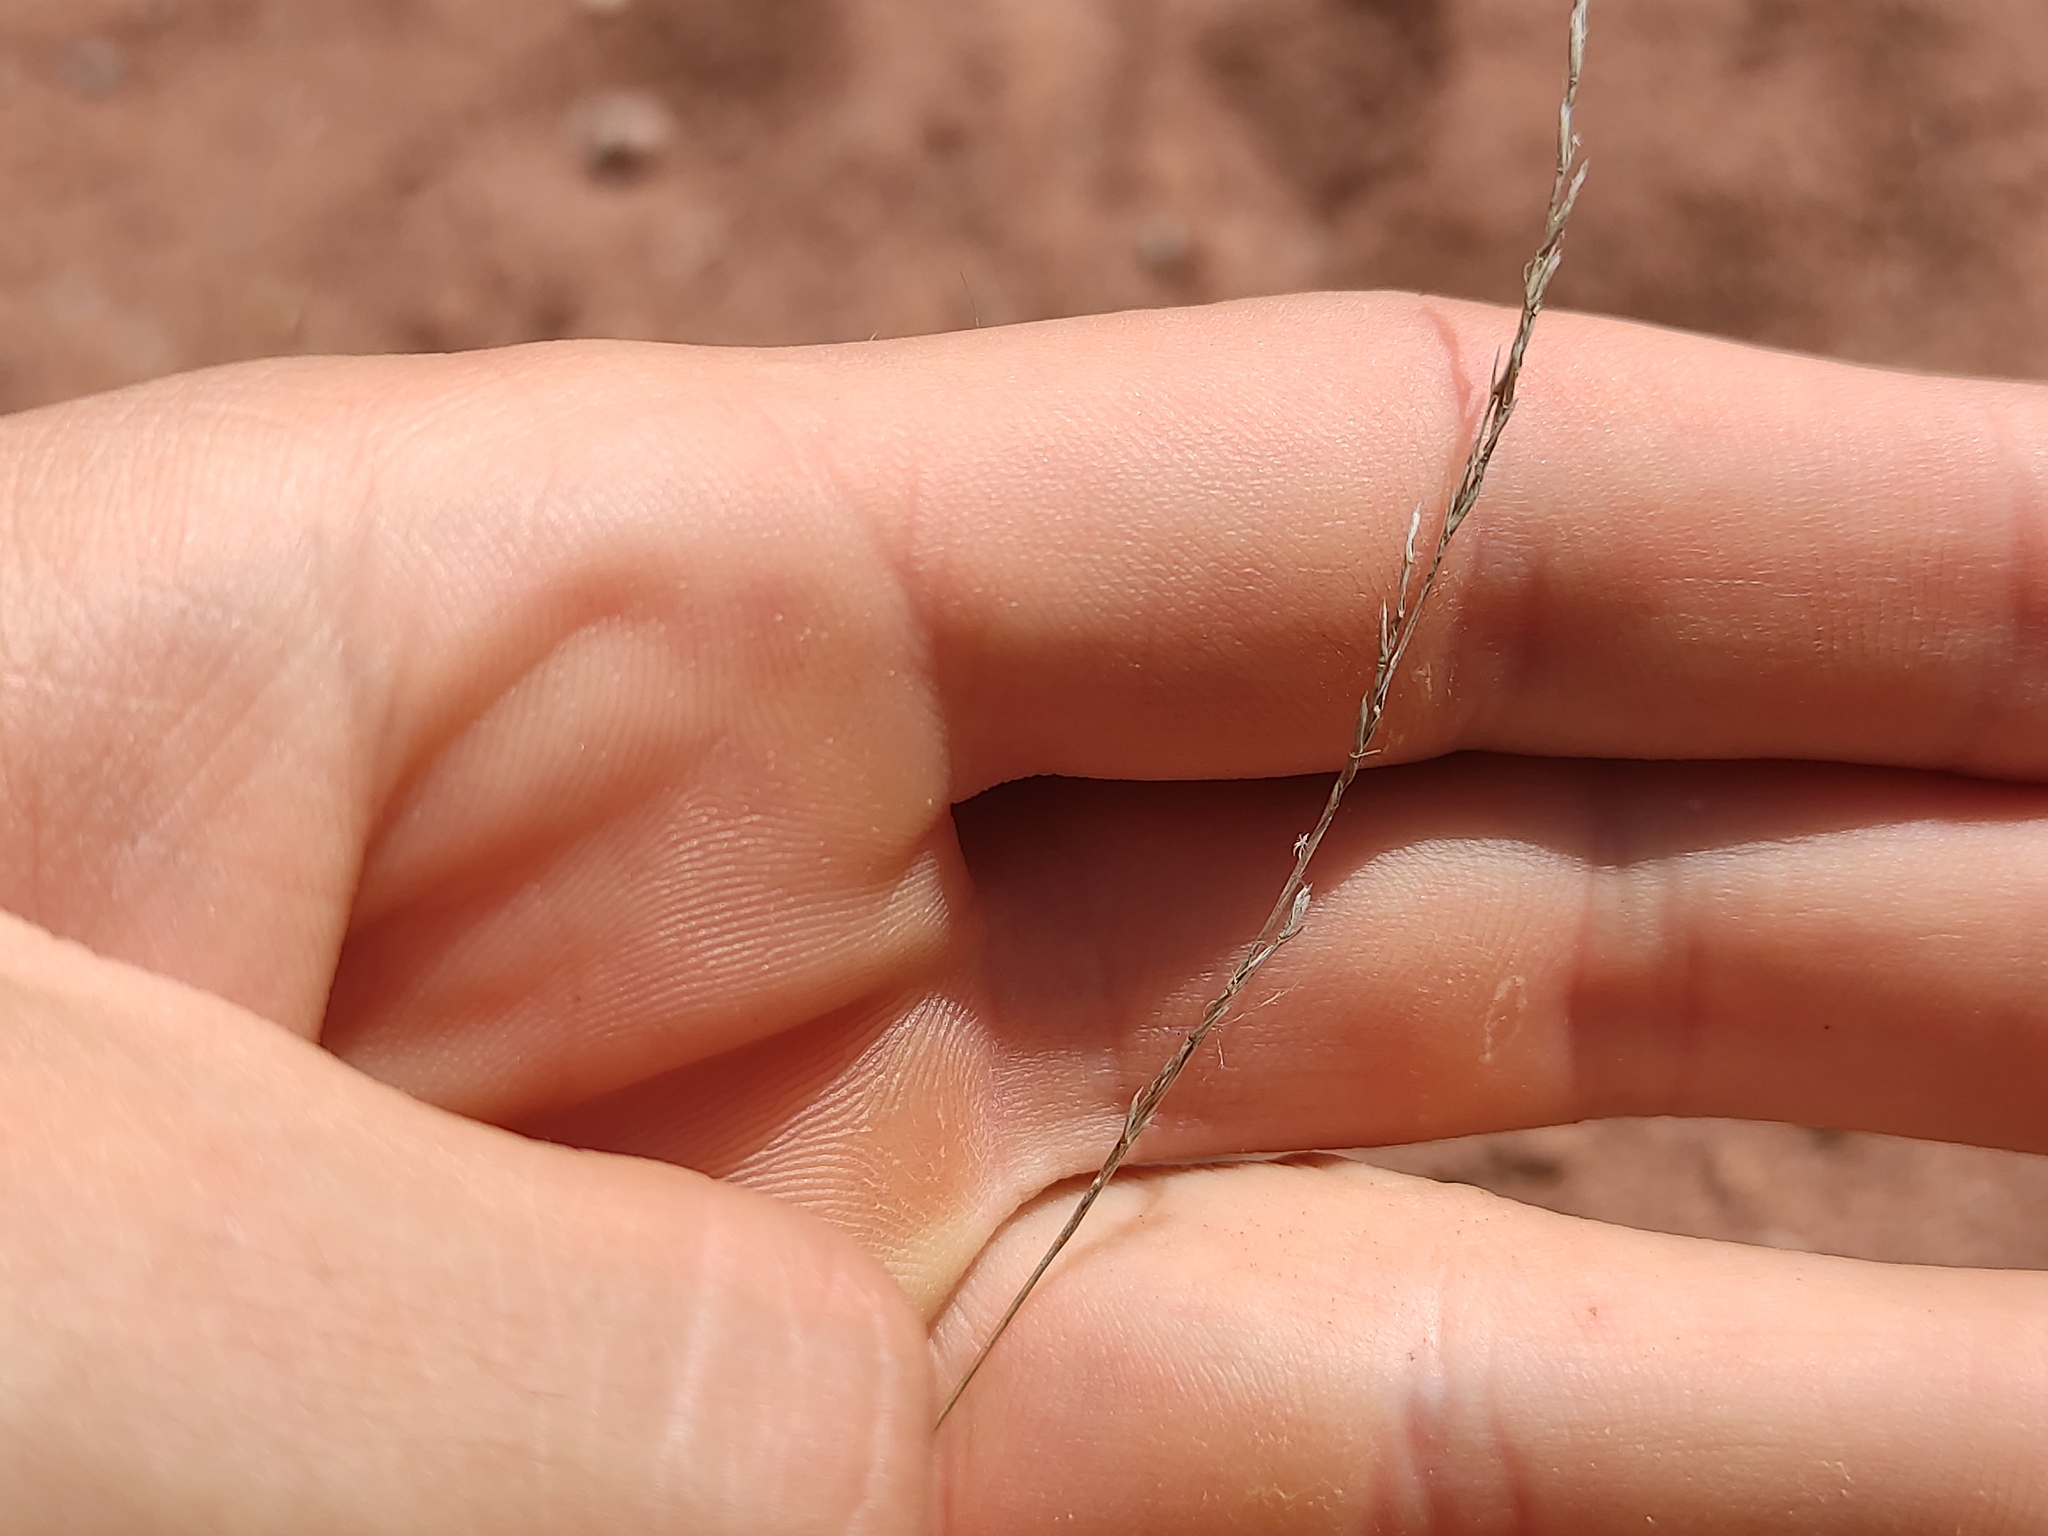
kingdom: Plantae
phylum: Tracheophyta
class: Liliopsida
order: Poales
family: Poaceae
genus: Deschampsia
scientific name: Deschampsia media
